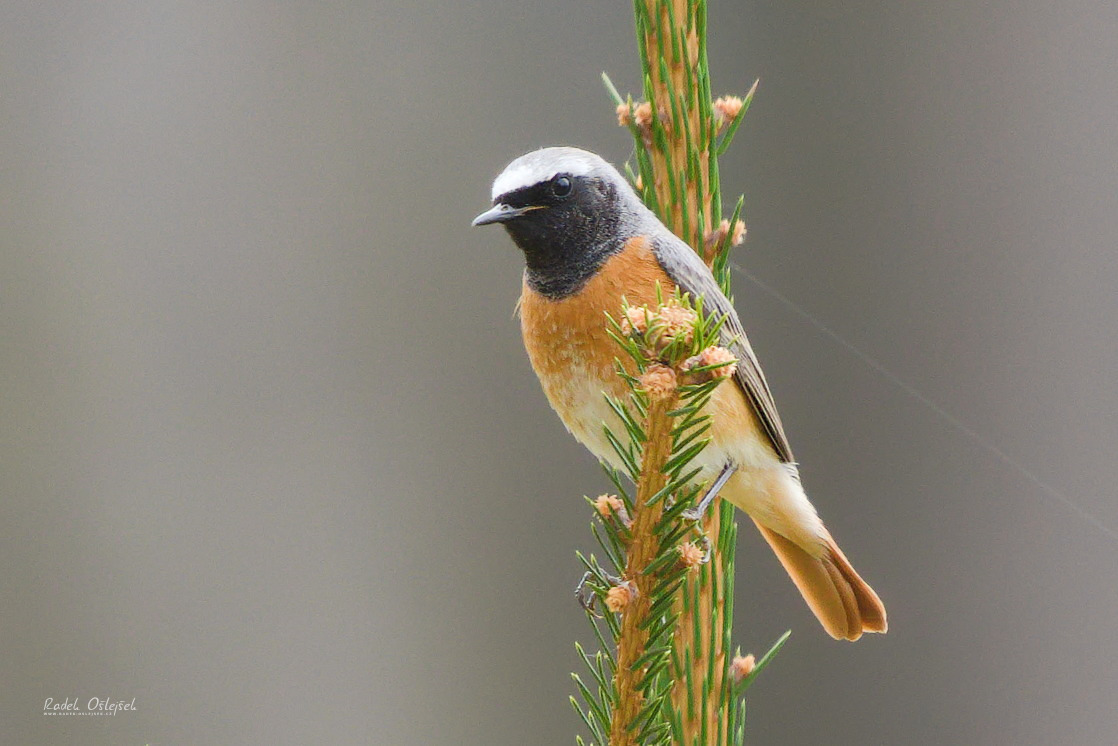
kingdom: Animalia
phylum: Chordata
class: Aves
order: Passeriformes
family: Muscicapidae
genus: Phoenicurus
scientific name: Phoenicurus phoenicurus
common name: Common redstart
